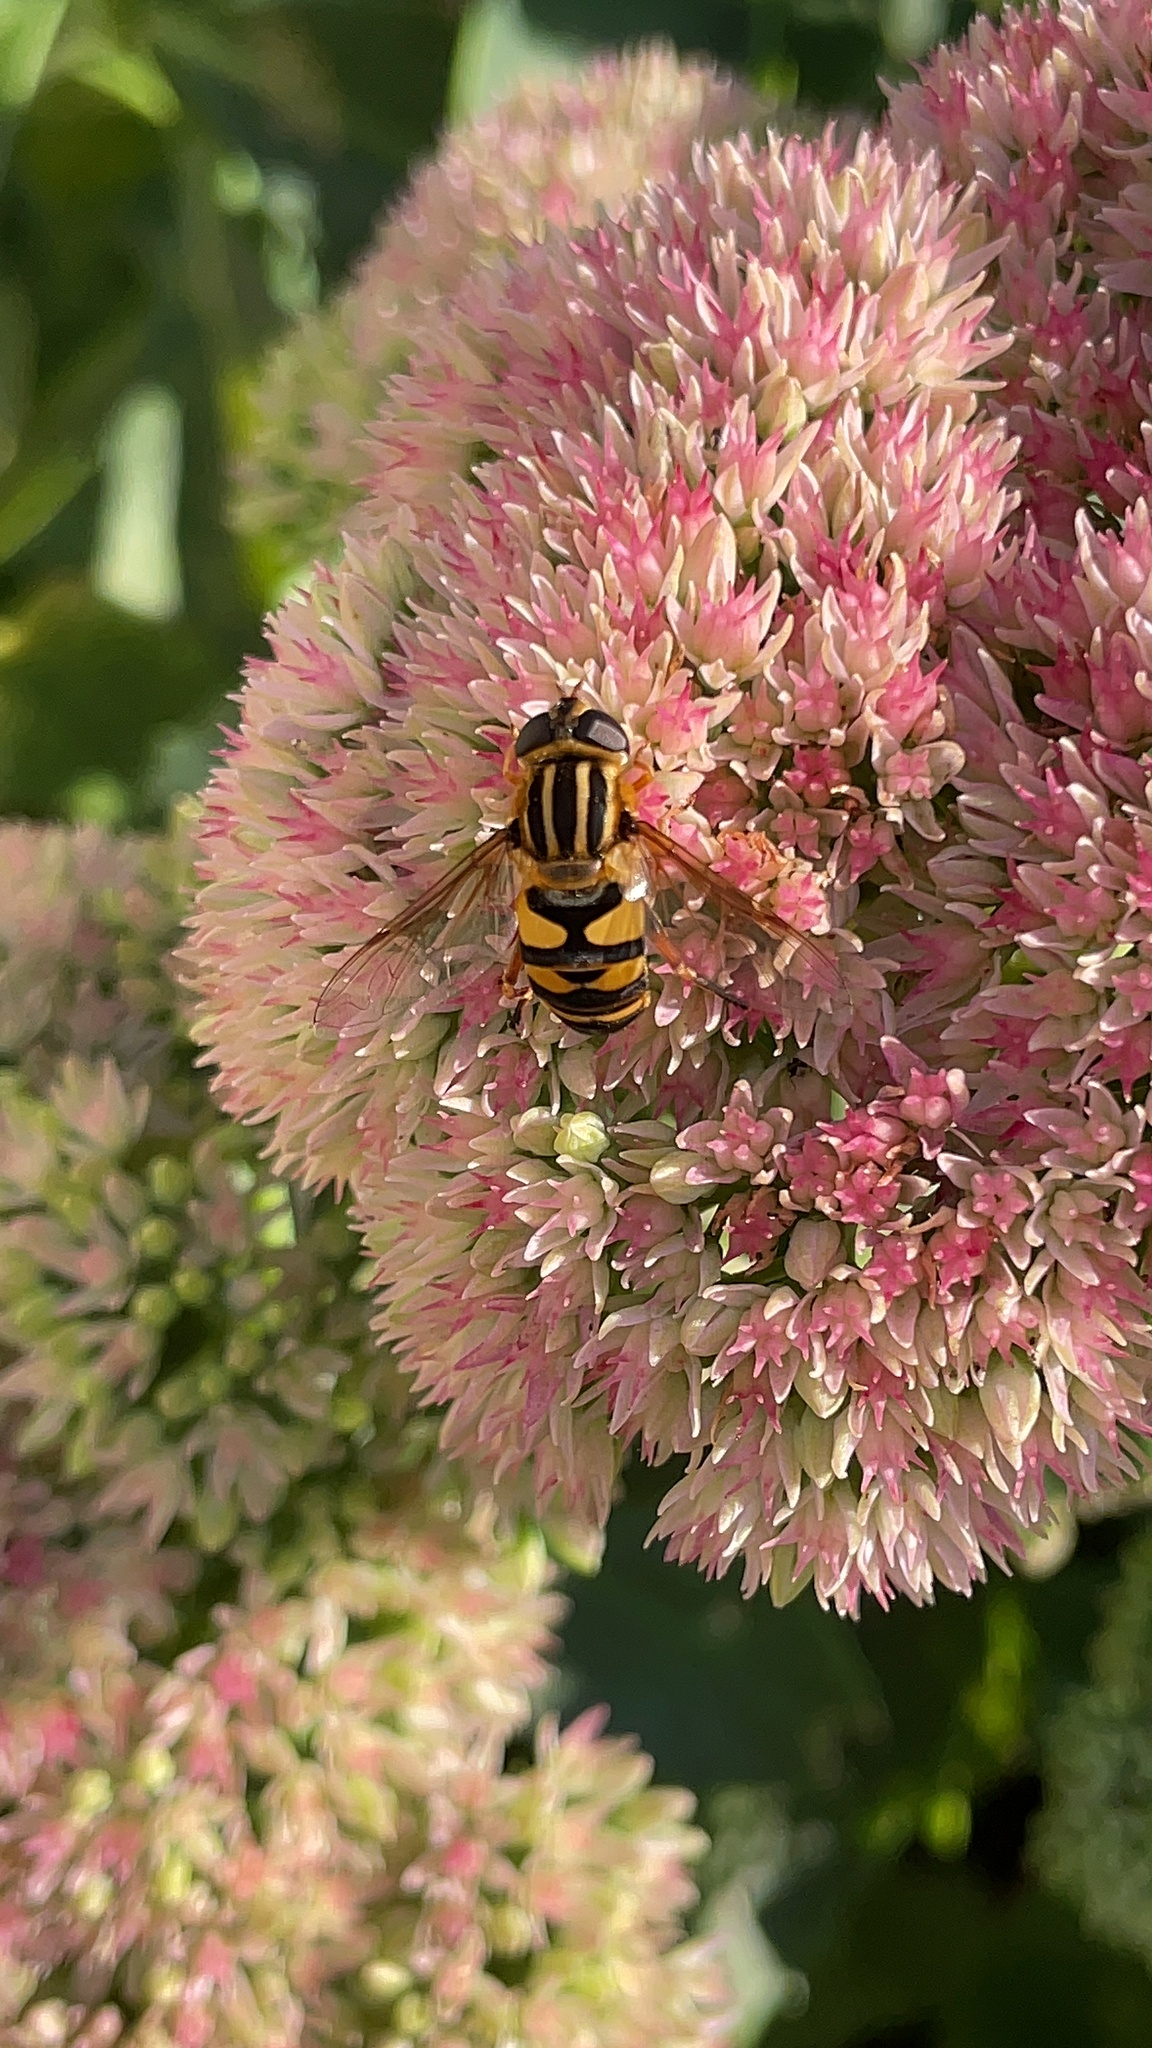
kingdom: Animalia
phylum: Arthropoda
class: Insecta
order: Diptera
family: Syrphidae
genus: Helophilus
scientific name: Helophilus fasciatus
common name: Narrow-headed marsh fly
